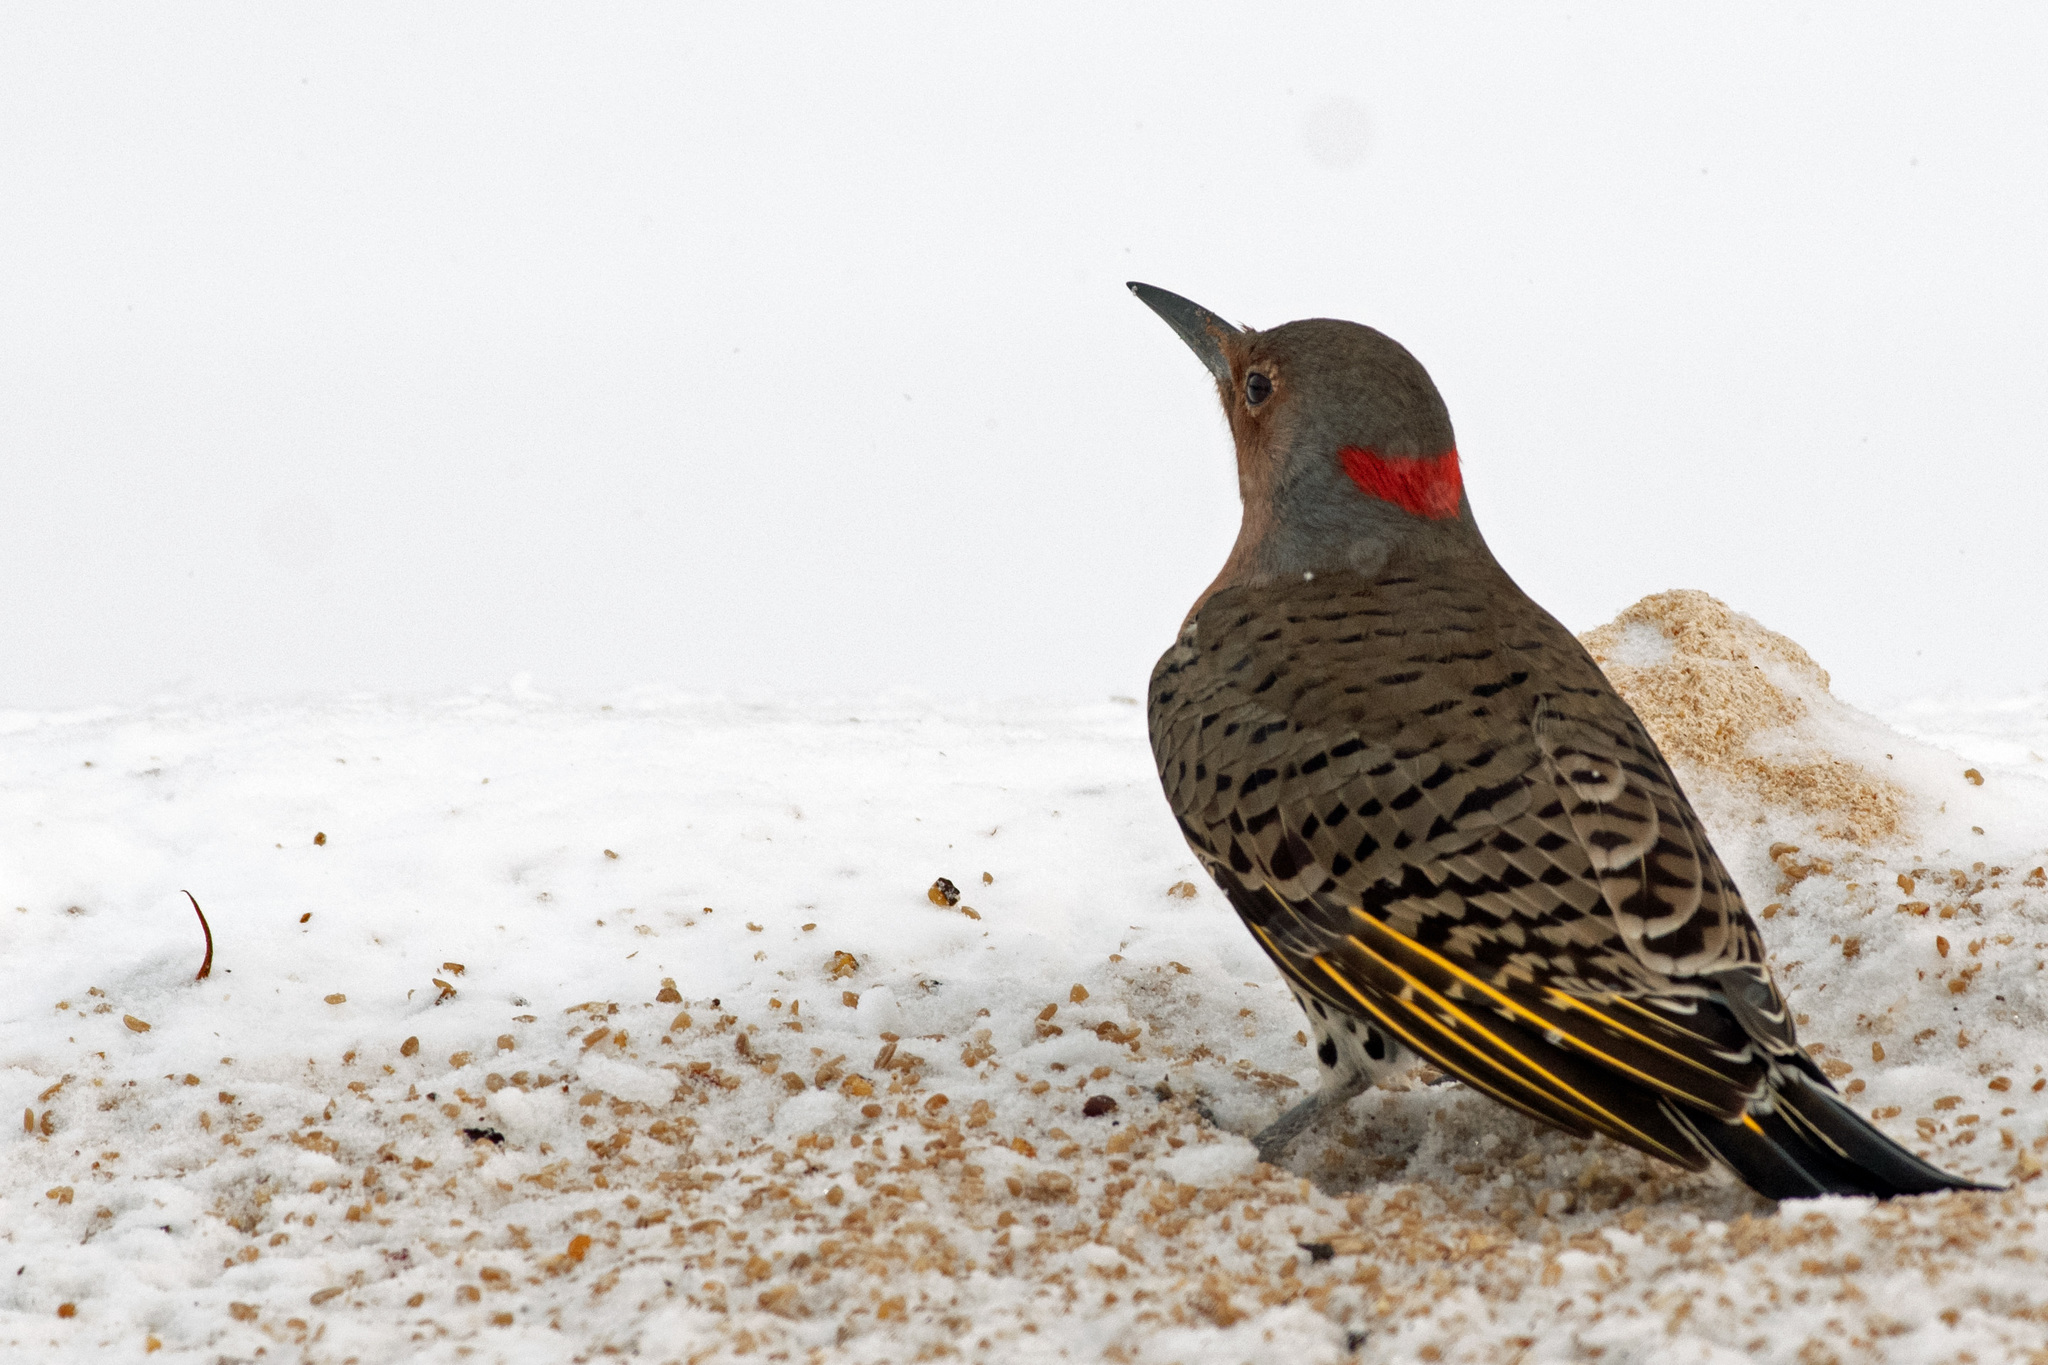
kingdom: Animalia
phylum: Chordata
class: Aves
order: Piciformes
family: Picidae
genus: Colaptes
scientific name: Colaptes auratus
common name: Northern flicker
